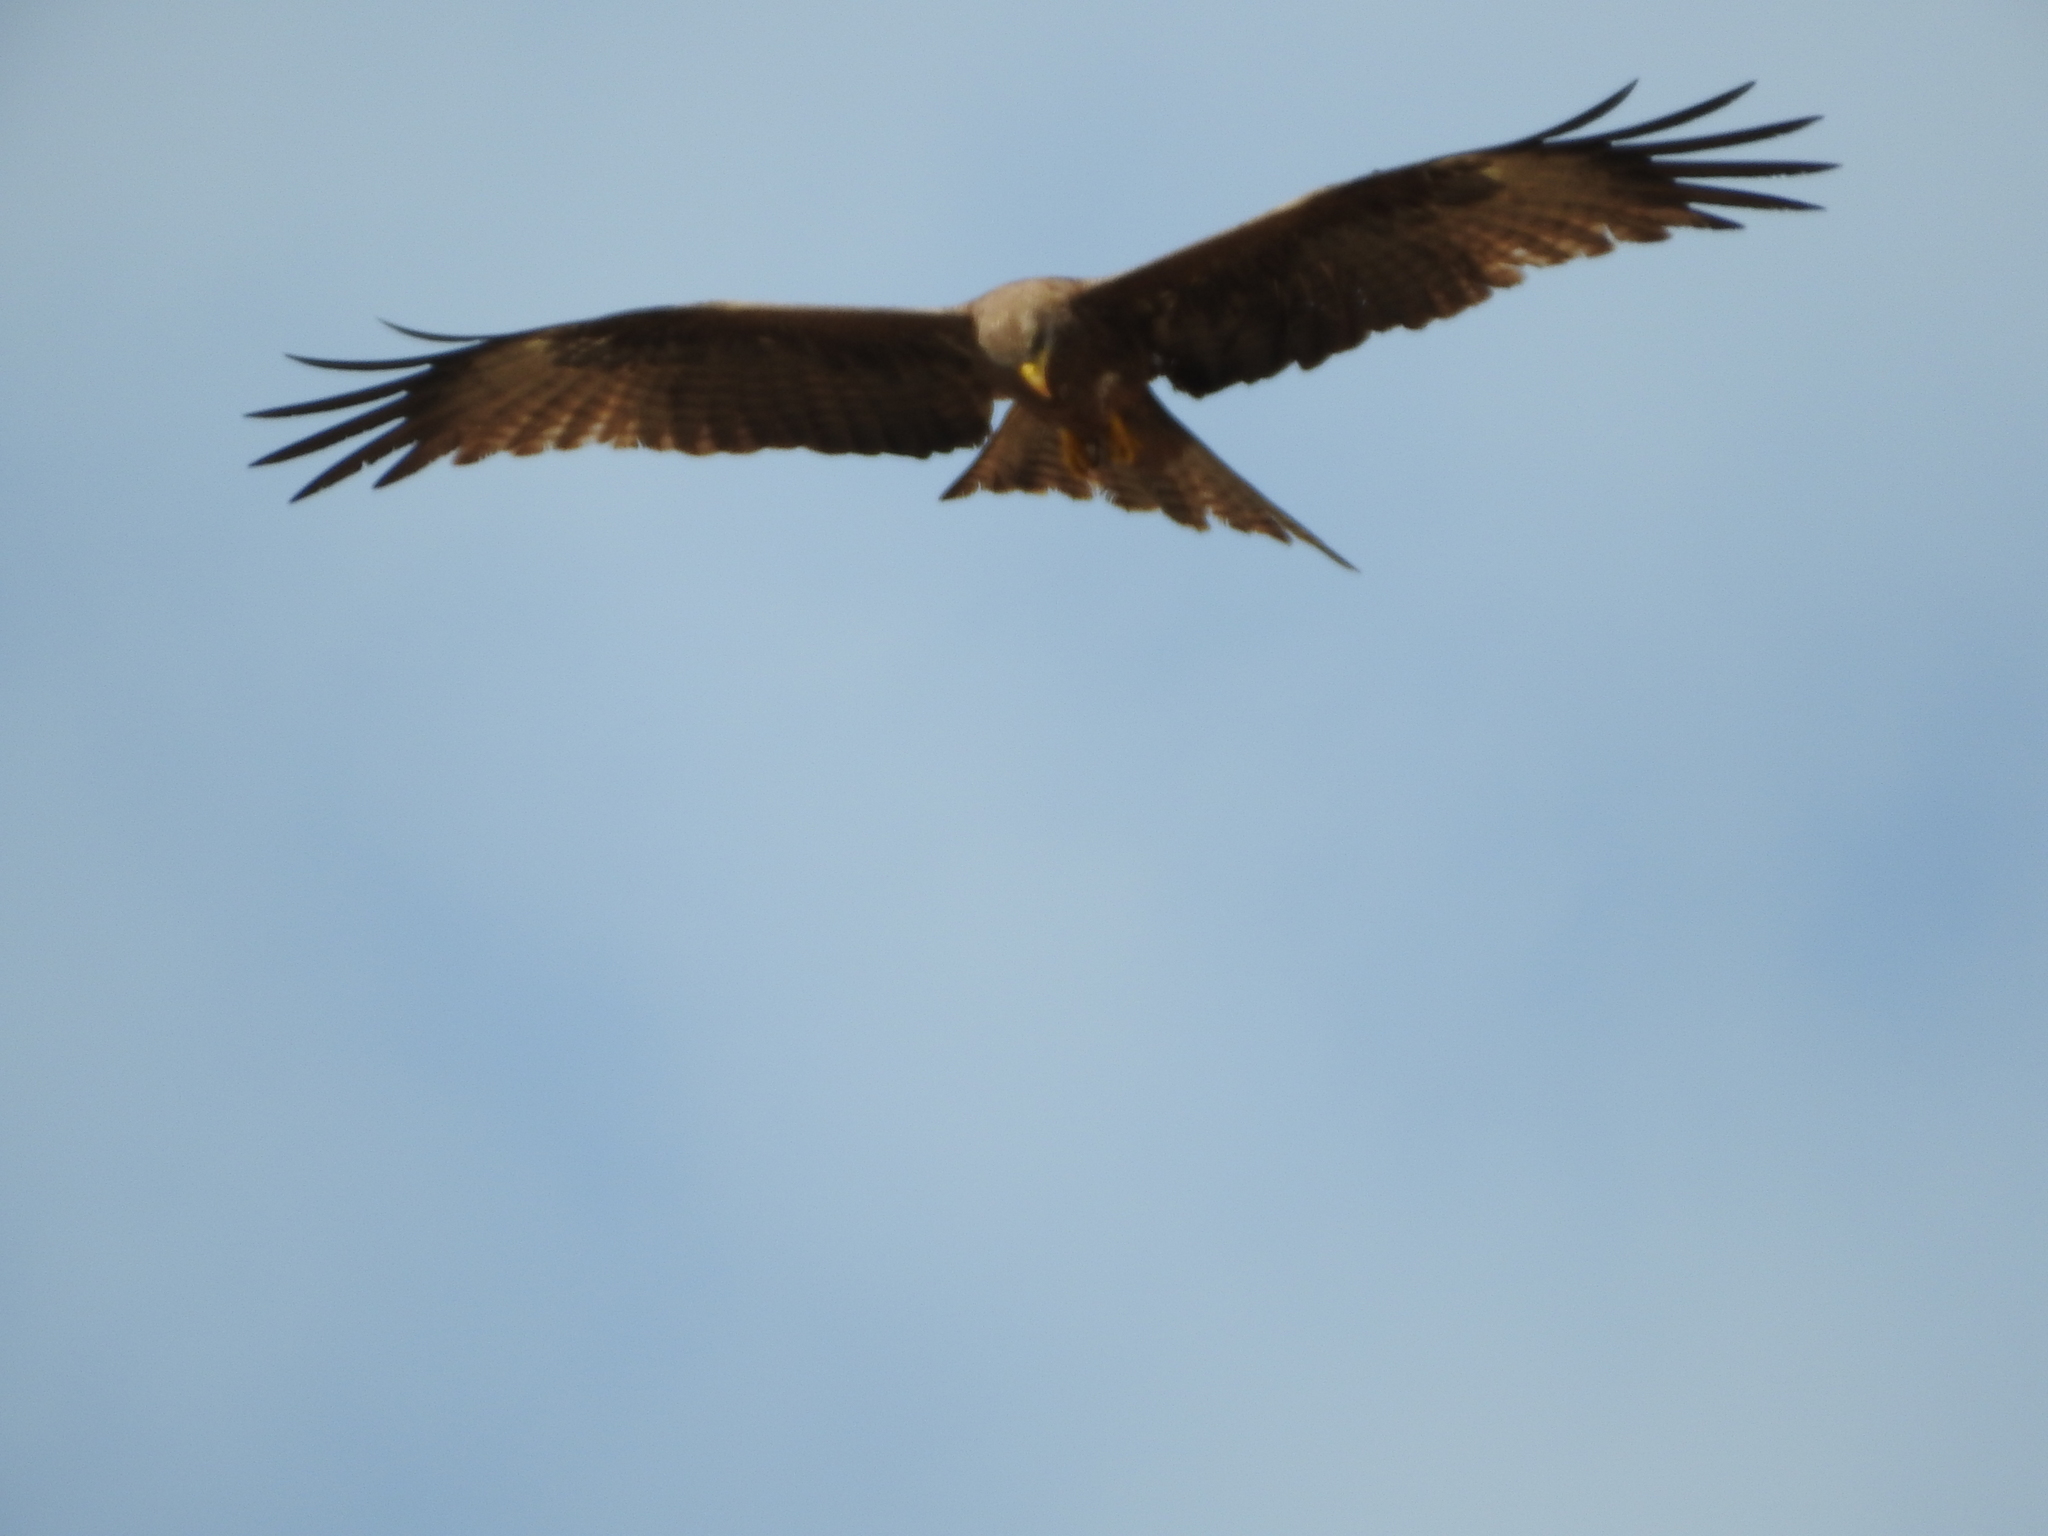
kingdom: Animalia
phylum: Chordata
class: Aves
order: Accipitriformes
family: Accipitridae
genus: Milvus
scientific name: Milvus migrans
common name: Black kite
